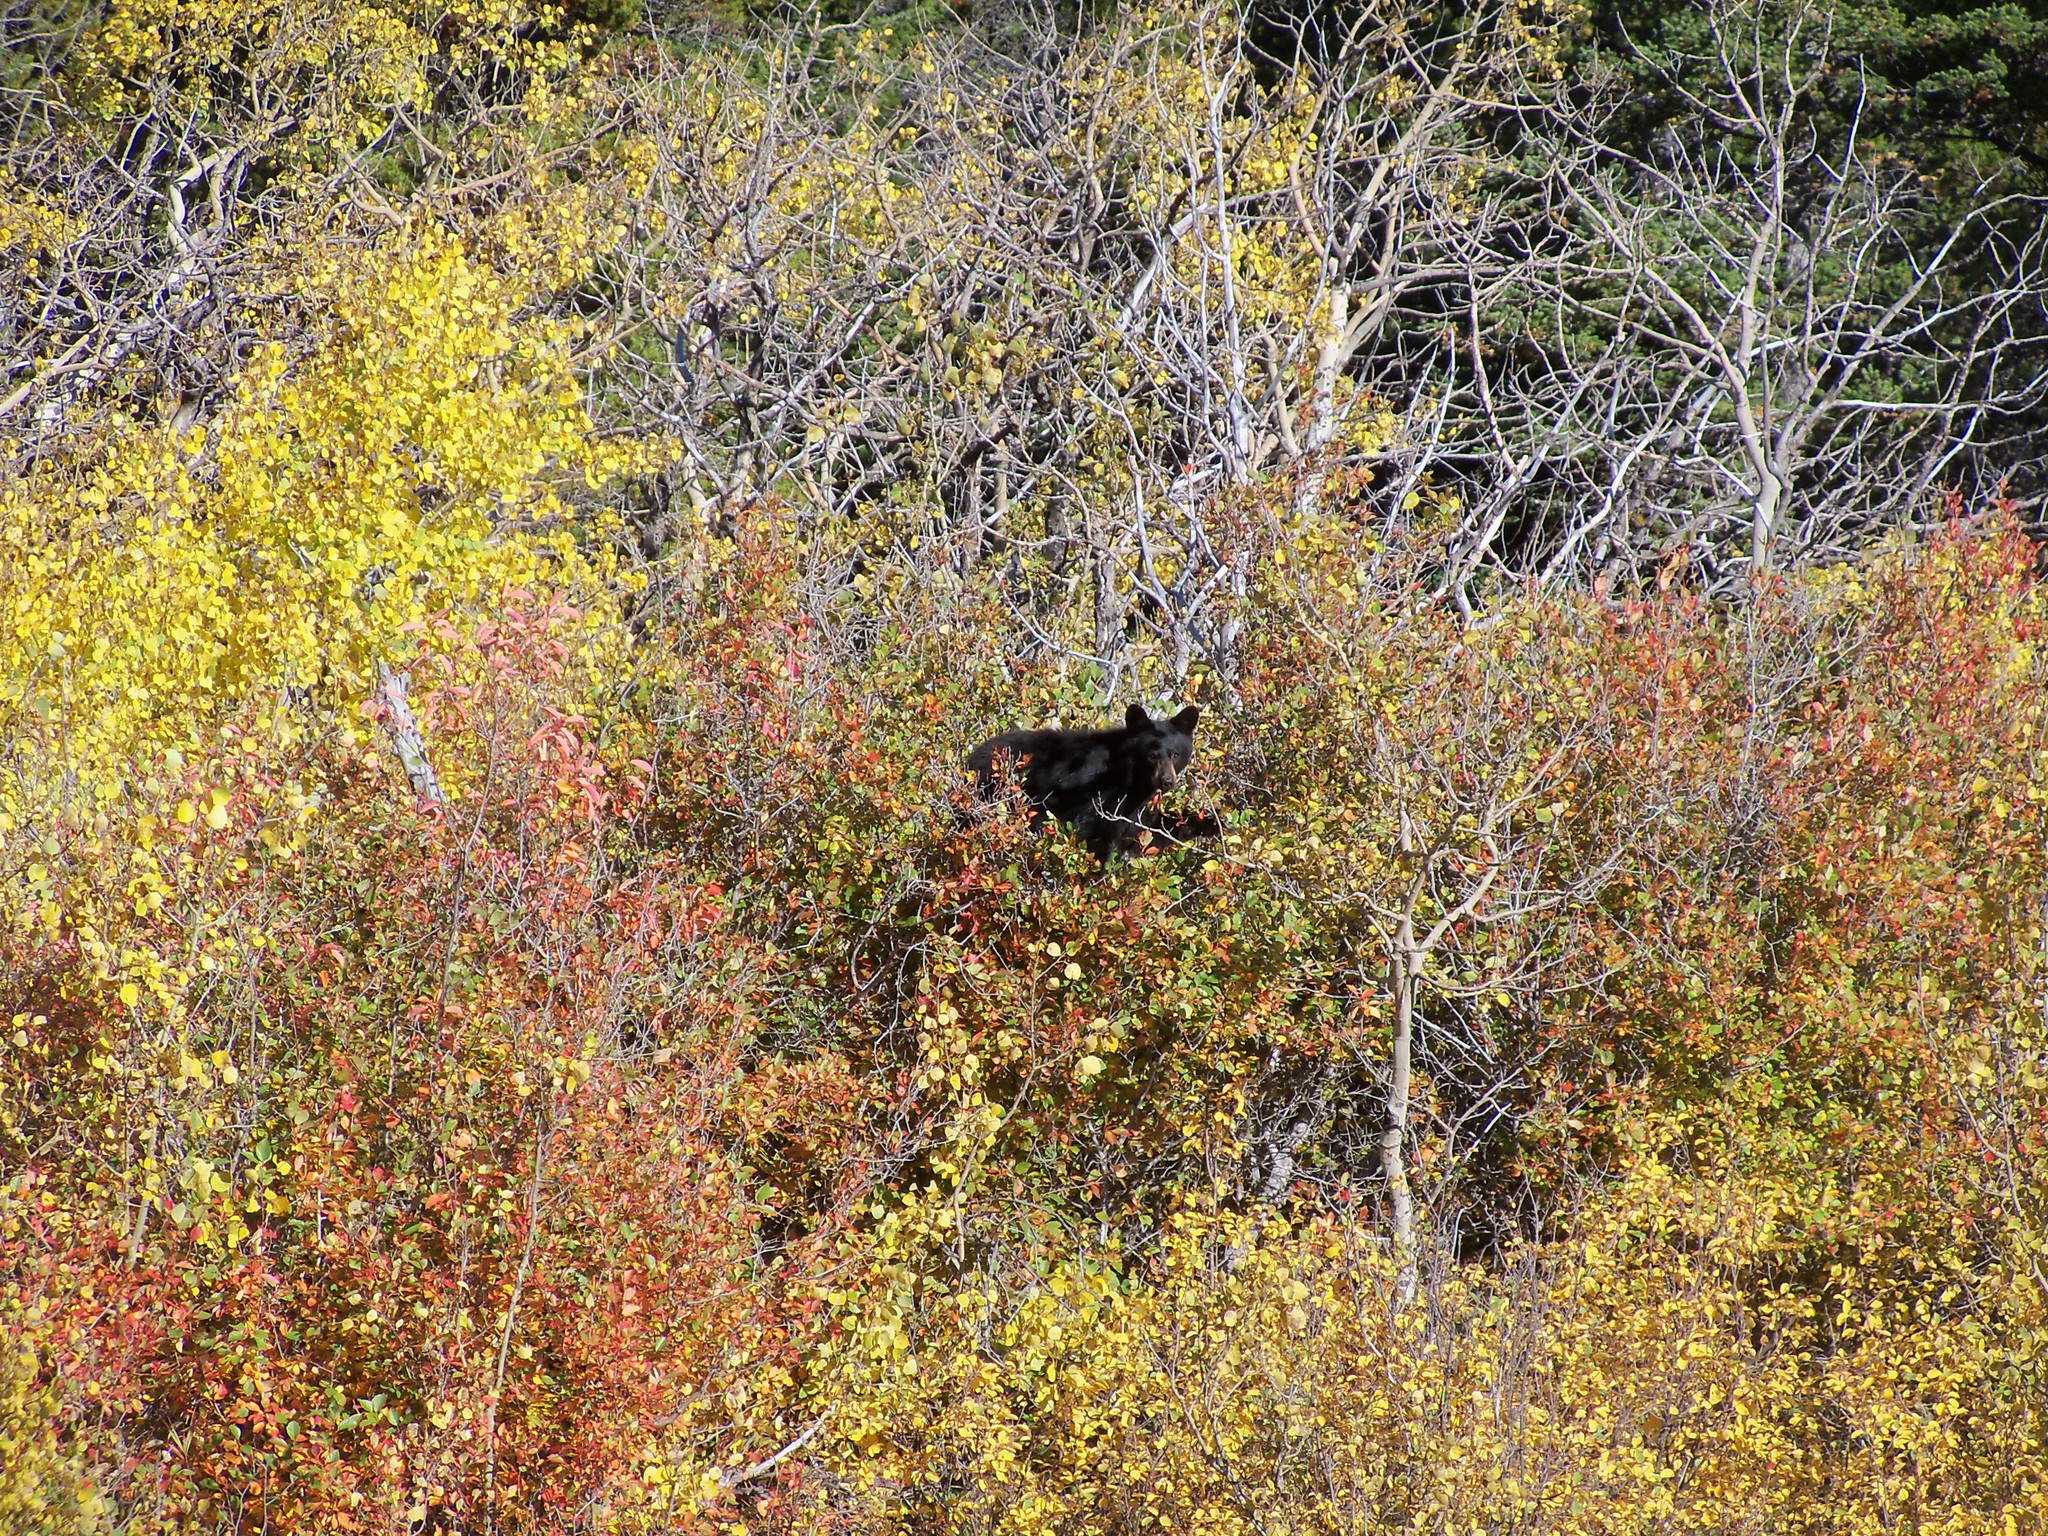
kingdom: Animalia
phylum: Chordata
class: Mammalia
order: Carnivora
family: Ursidae
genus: Ursus
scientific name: Ursus americanus
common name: American black bear
